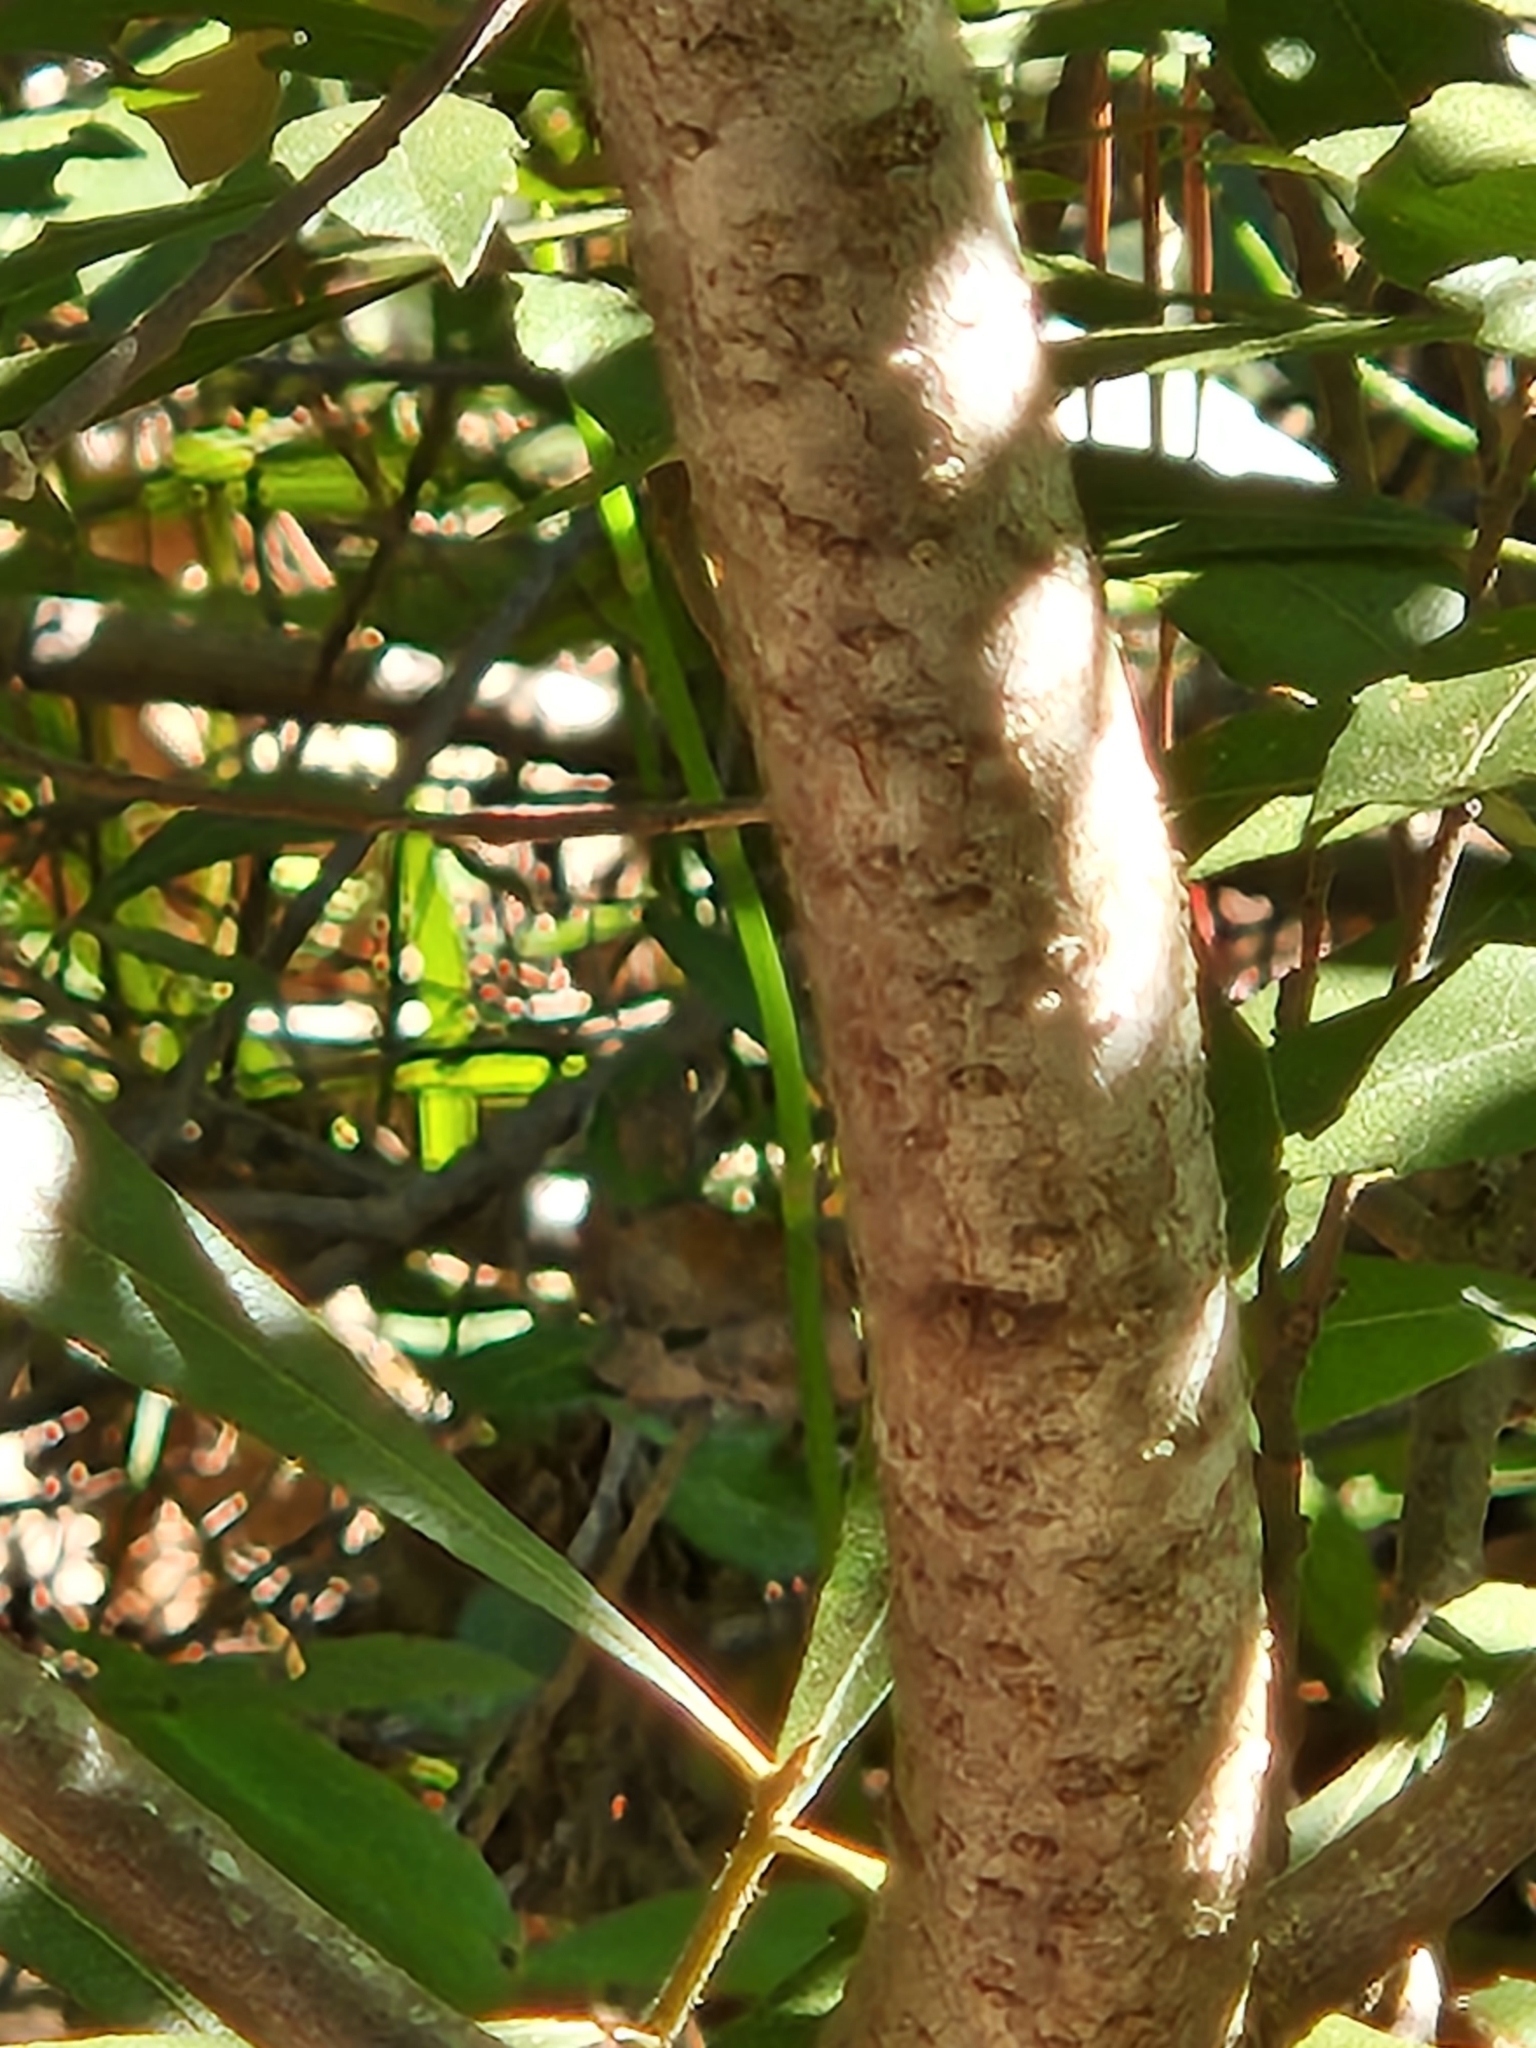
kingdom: Plantae
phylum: Tracheophyta
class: Magnoliopsida
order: Fagales
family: Myricaceae
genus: Morella
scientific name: Morella cerifera
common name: Wax myrtle
